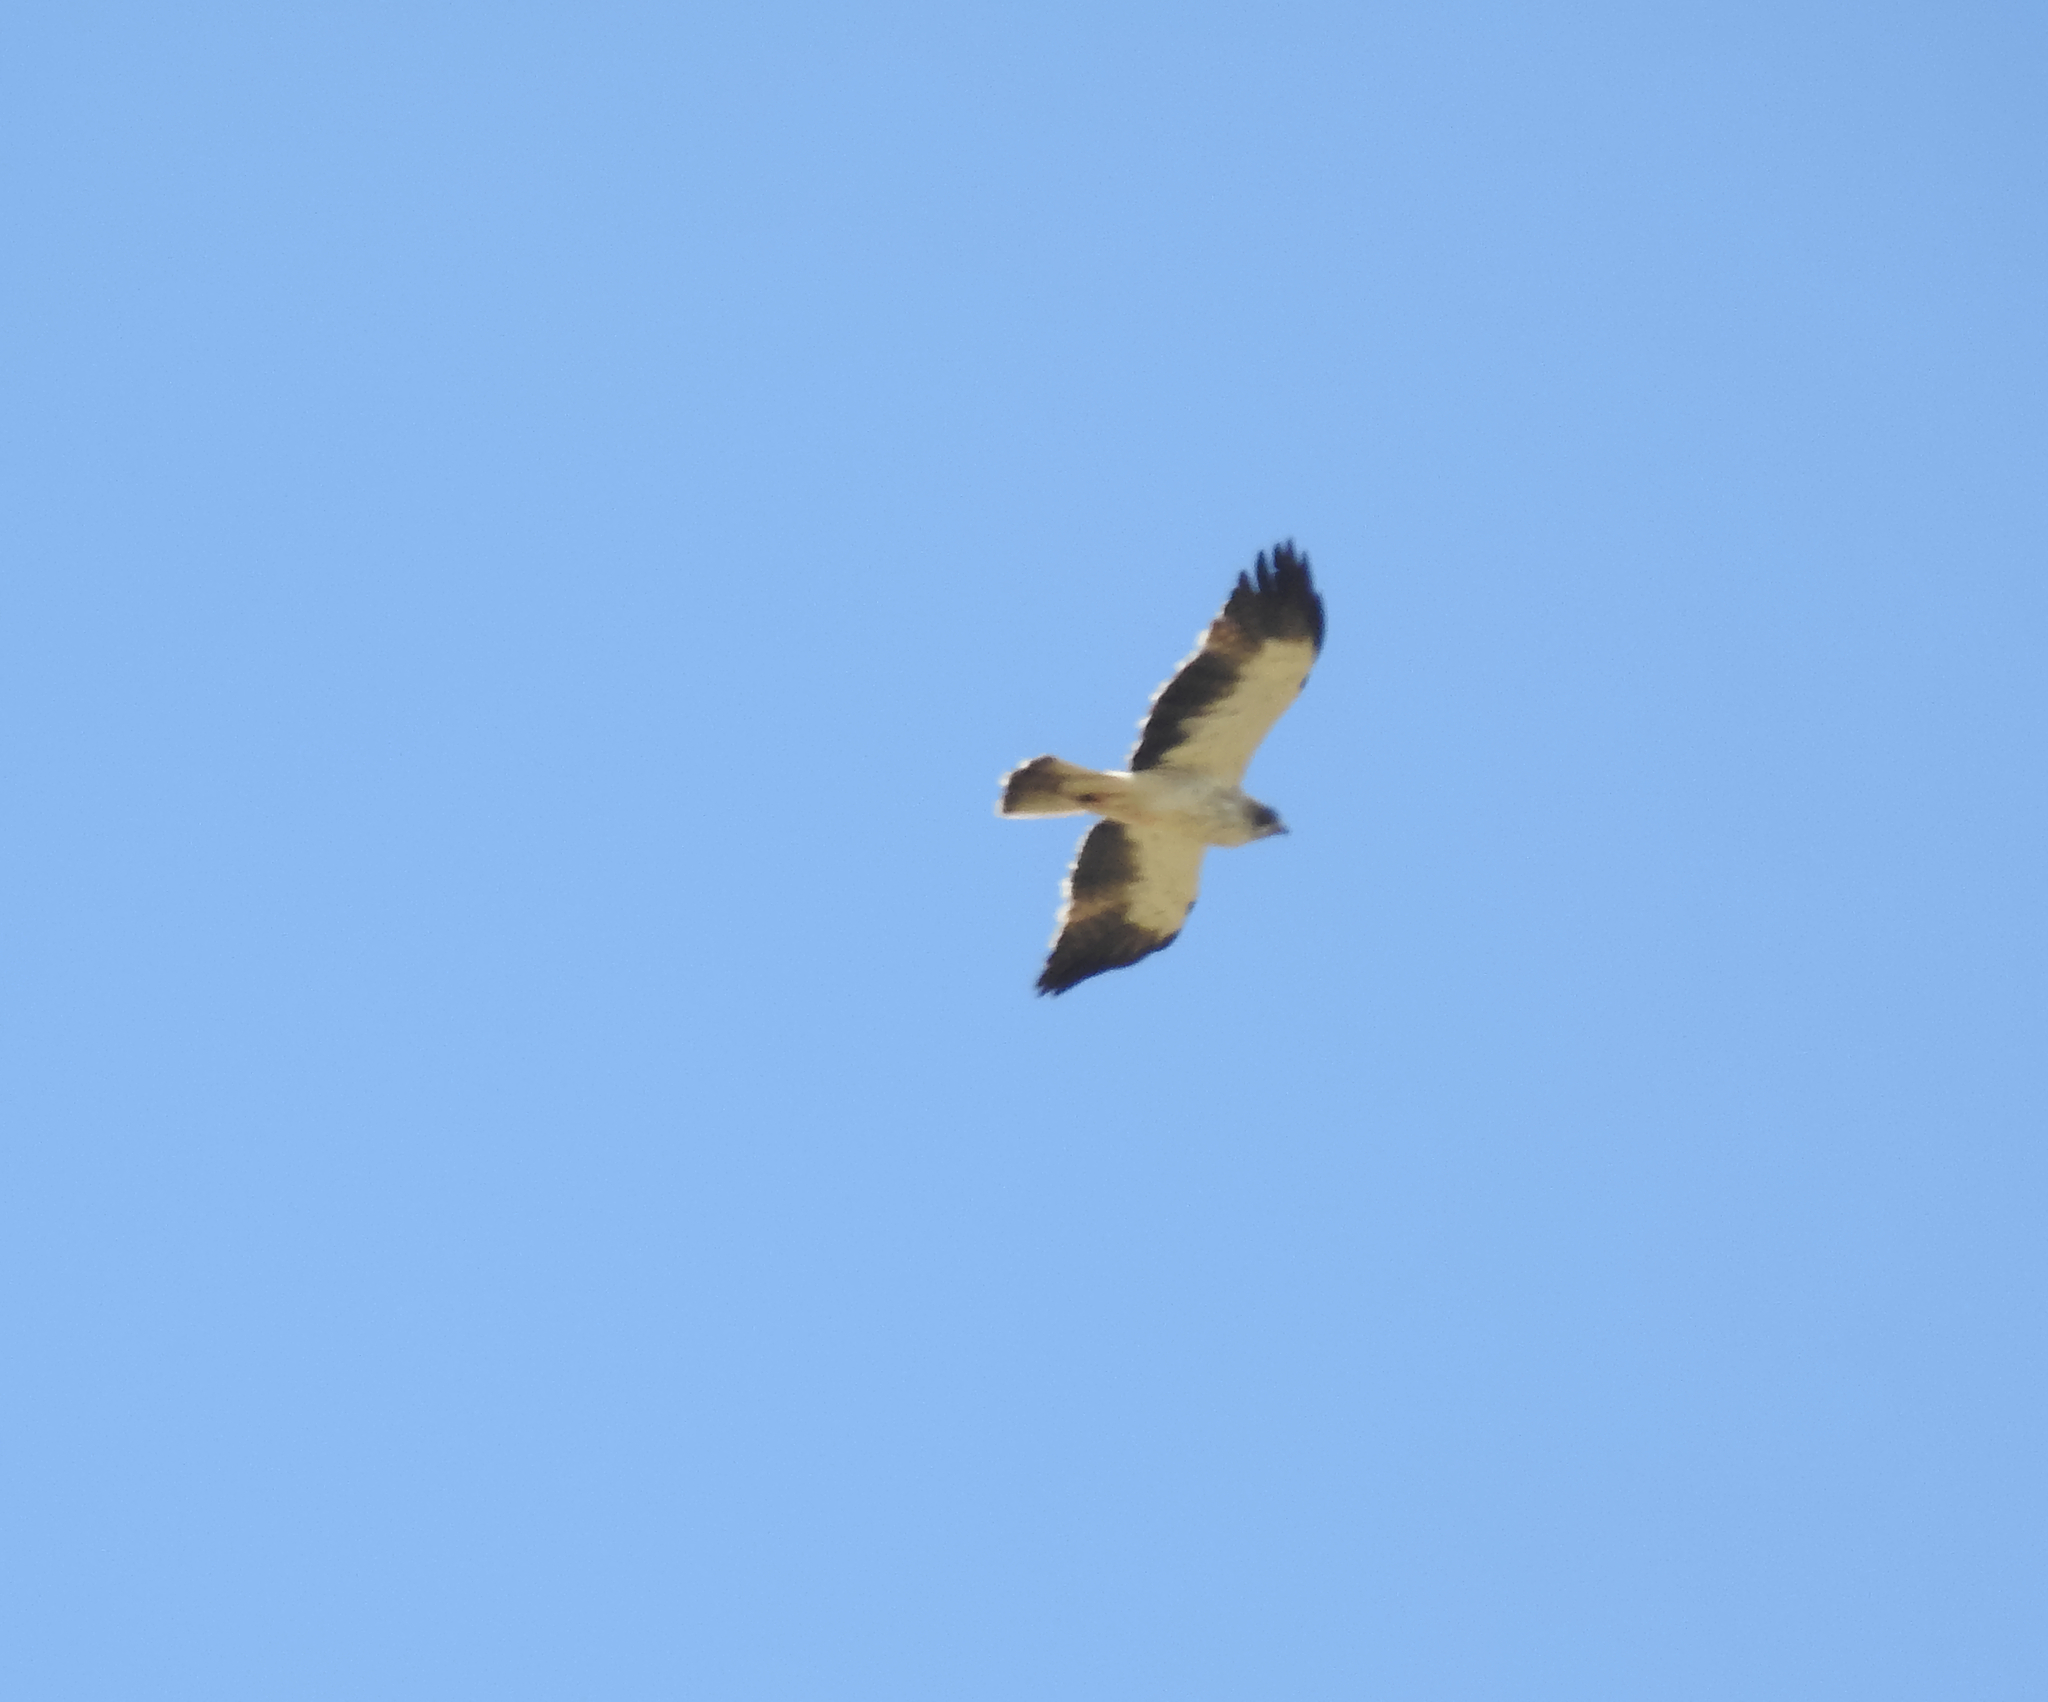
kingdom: Animalia
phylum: Chordata
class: Aves
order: Accipitriformes
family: Accipitridae
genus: Hieraaetus
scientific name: Hieraaetus pennatus
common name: Booted eagle
